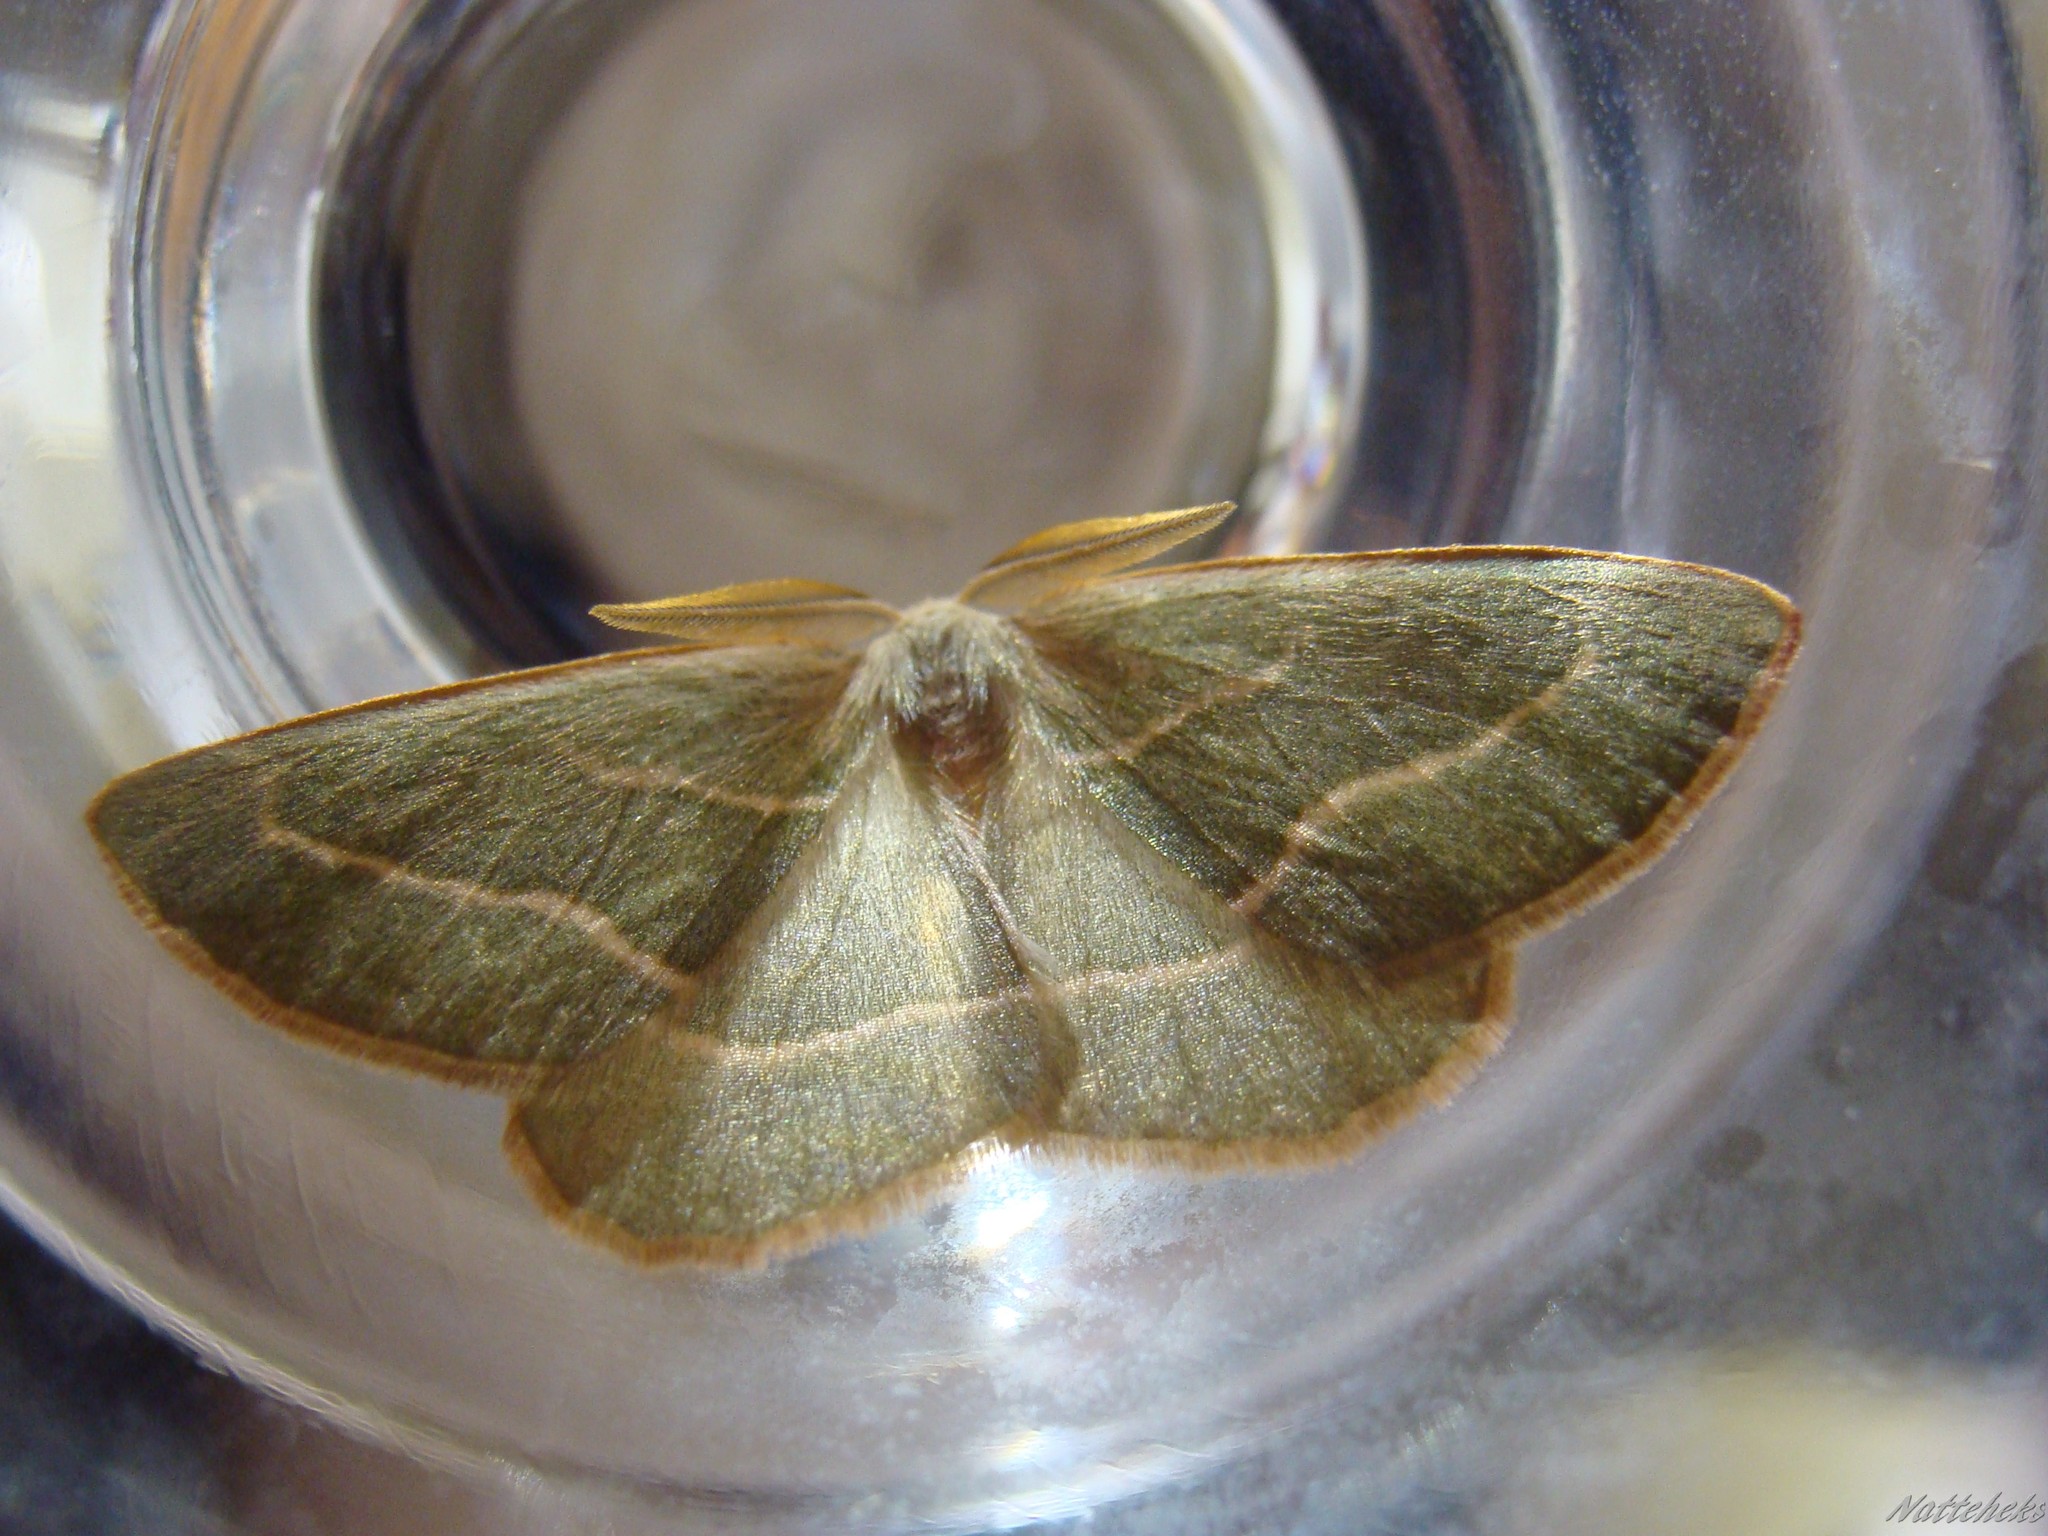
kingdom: Animalia
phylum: Arthropoda
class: Insecta
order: Lepidoptera
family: Geometridae
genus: Hylaea
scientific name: Hylaea fasciaria
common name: Barred red
